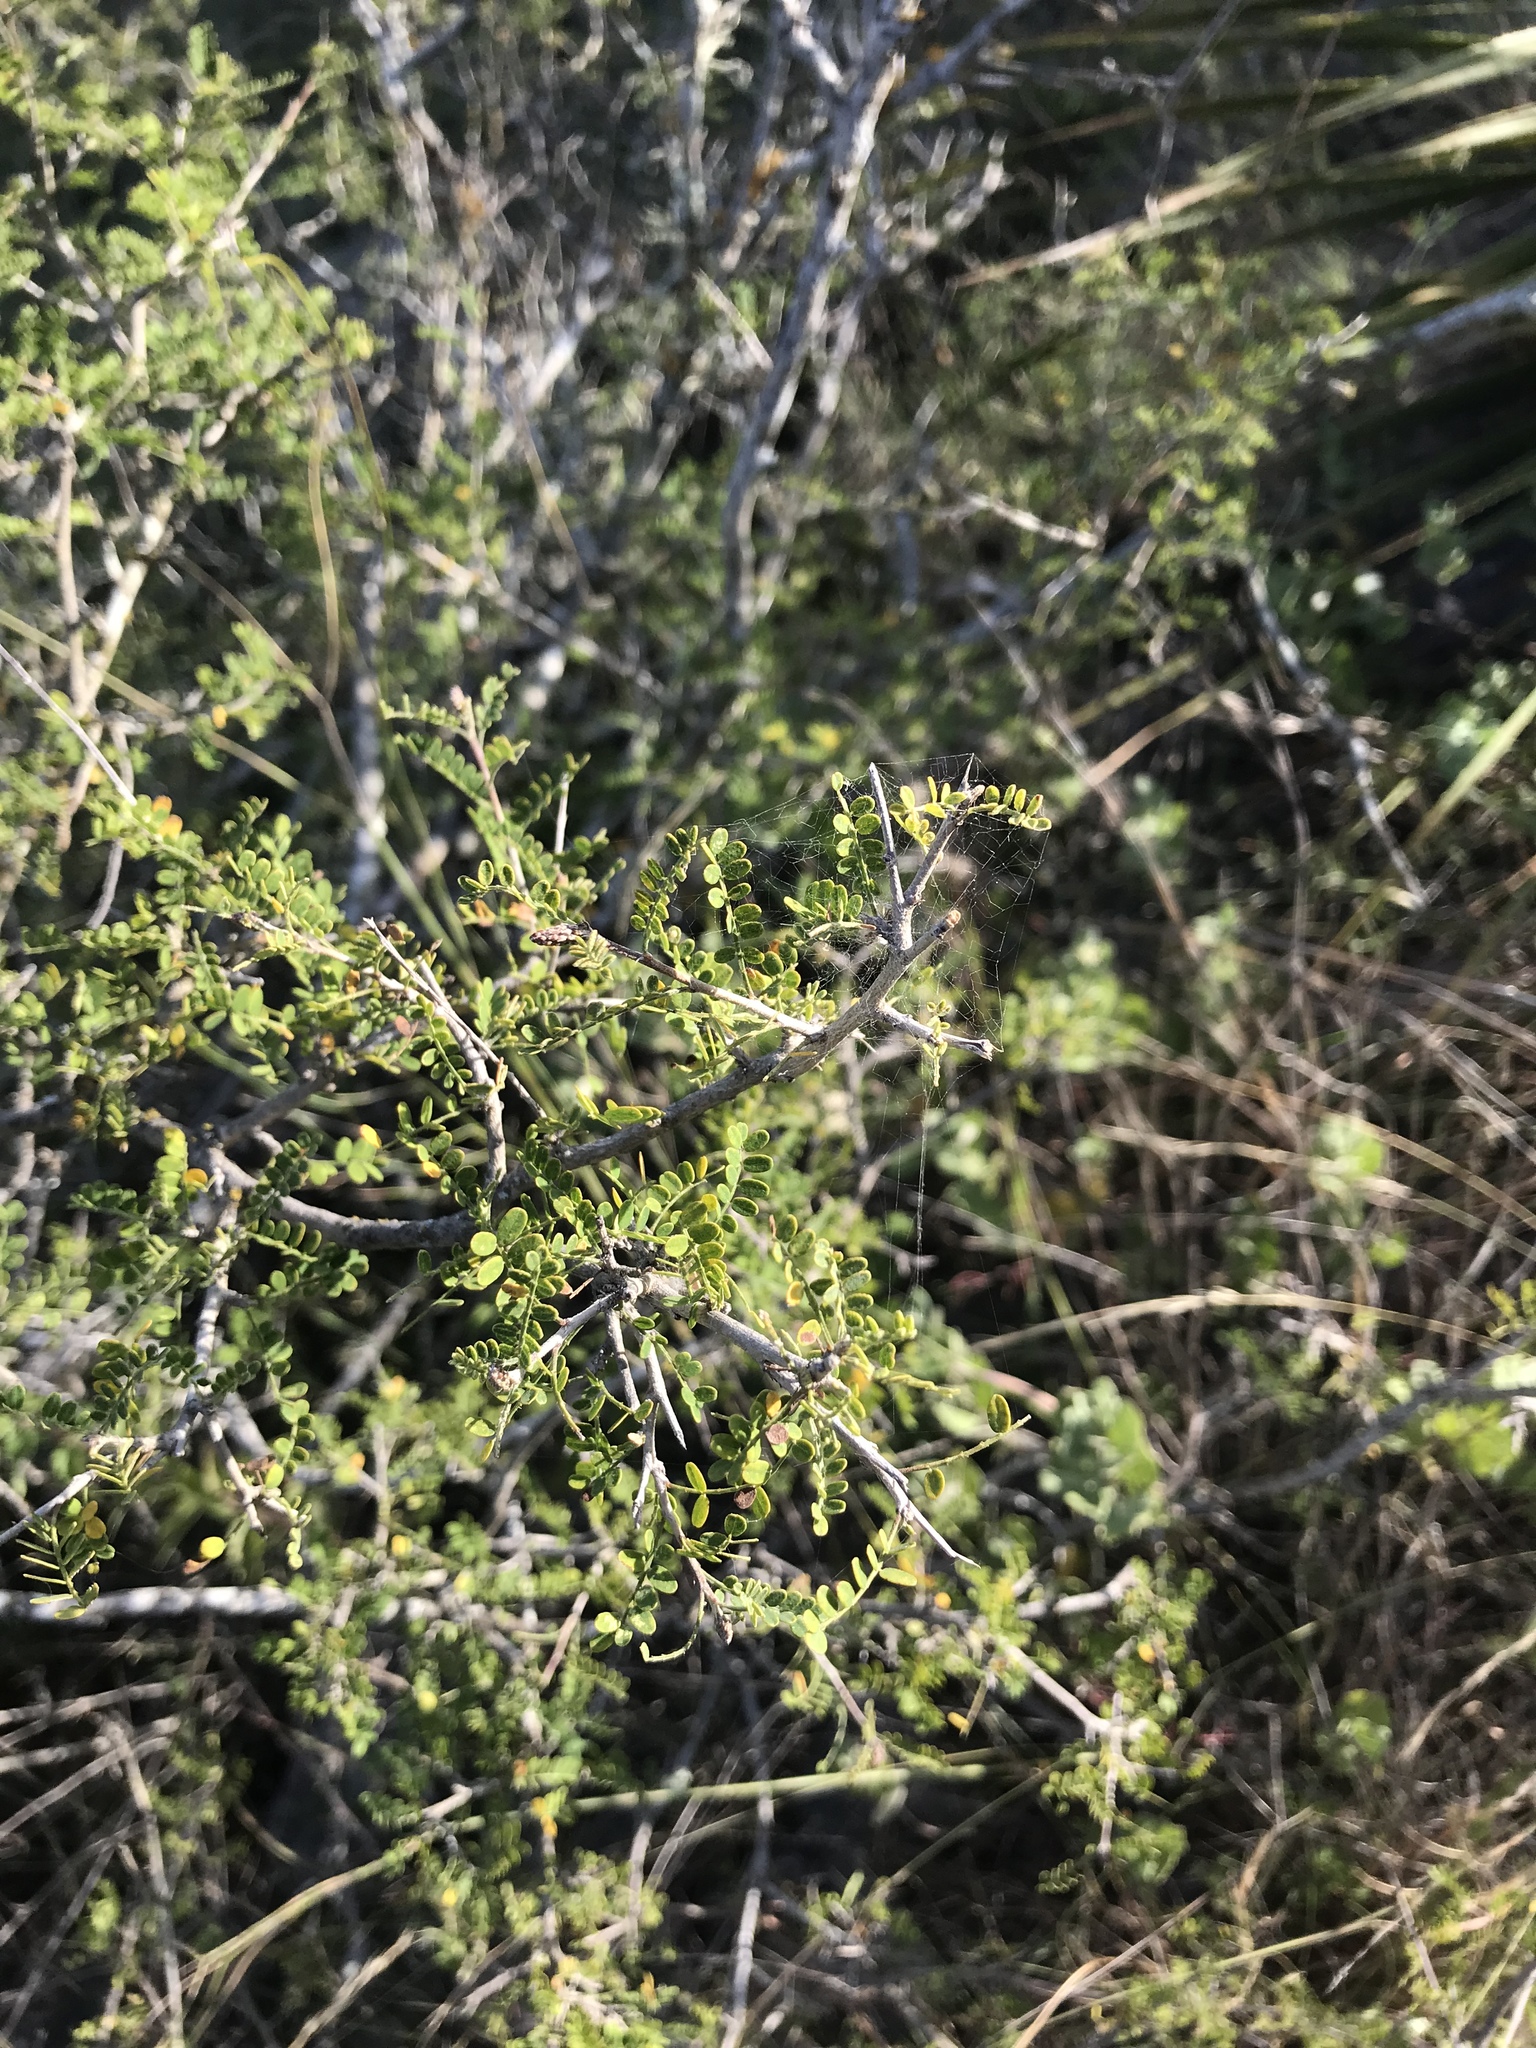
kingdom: Plantae
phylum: Tracheophyta
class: Magnoliopsida
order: Fabales
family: Fabaceae
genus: Eysenhardtia
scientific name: Eysenhardtia texana
